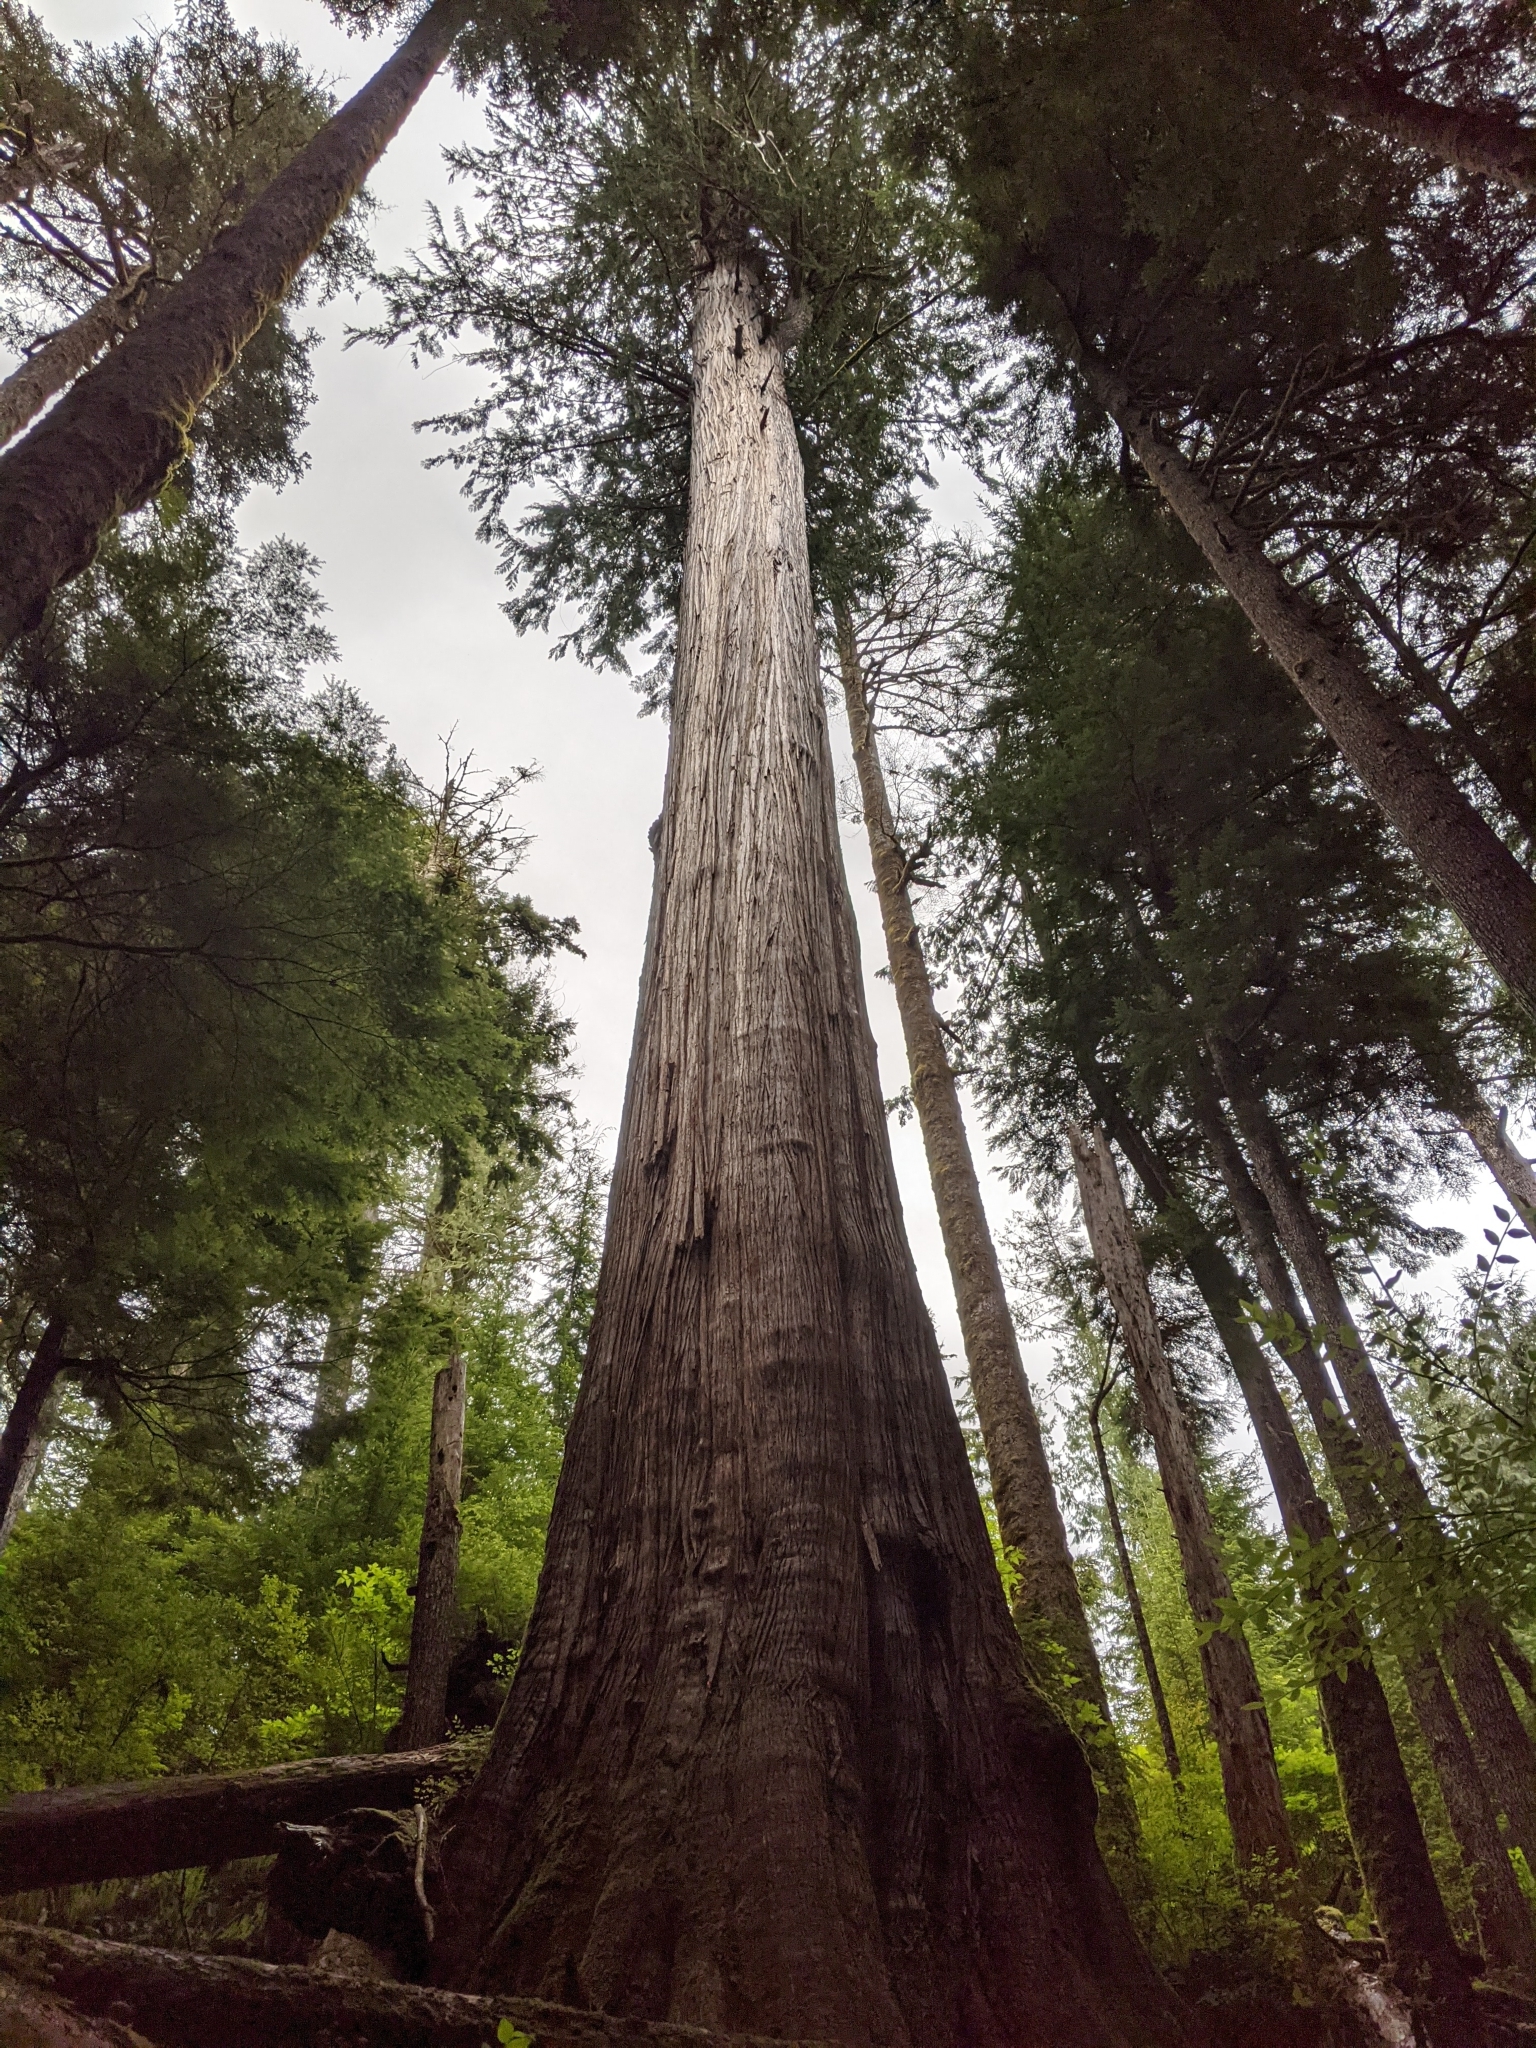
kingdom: Plantae
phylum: Tracheophyta
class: Pinopsida
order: Pinales
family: Cupressaceae
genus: Thuja
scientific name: Thuja plicata
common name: Western red-cedar
